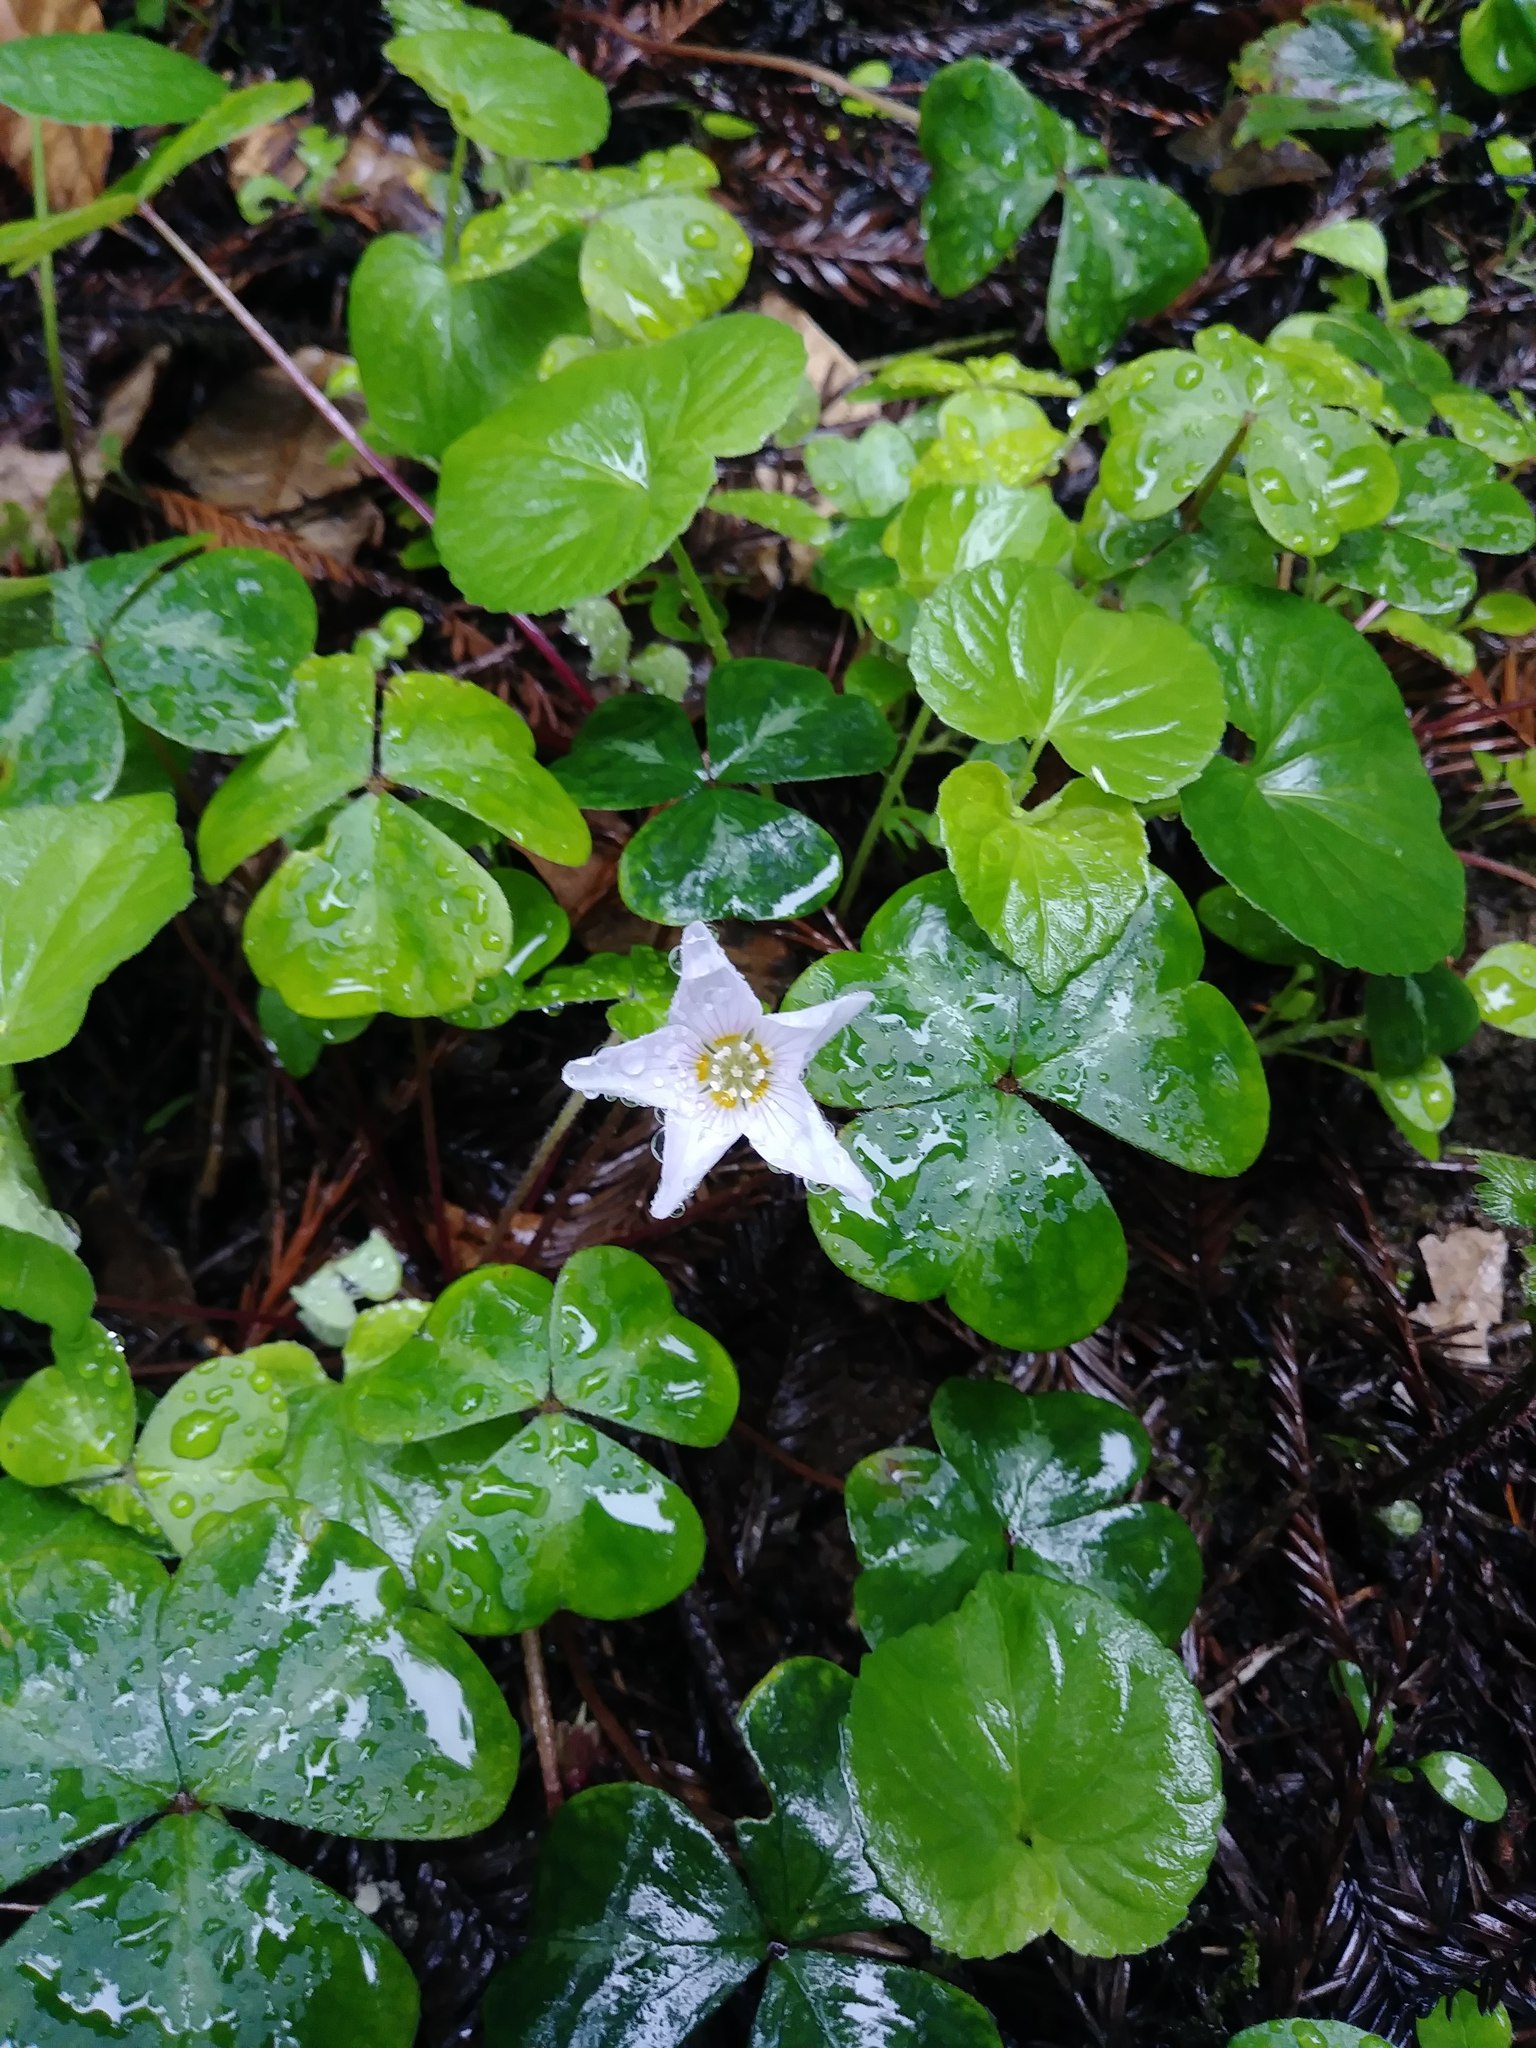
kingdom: Plantae
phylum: Tracheophyta
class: Magnoliopsida
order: Oxalidales
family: Oxalidaceae
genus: Oxalis
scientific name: Oxalis oregana
